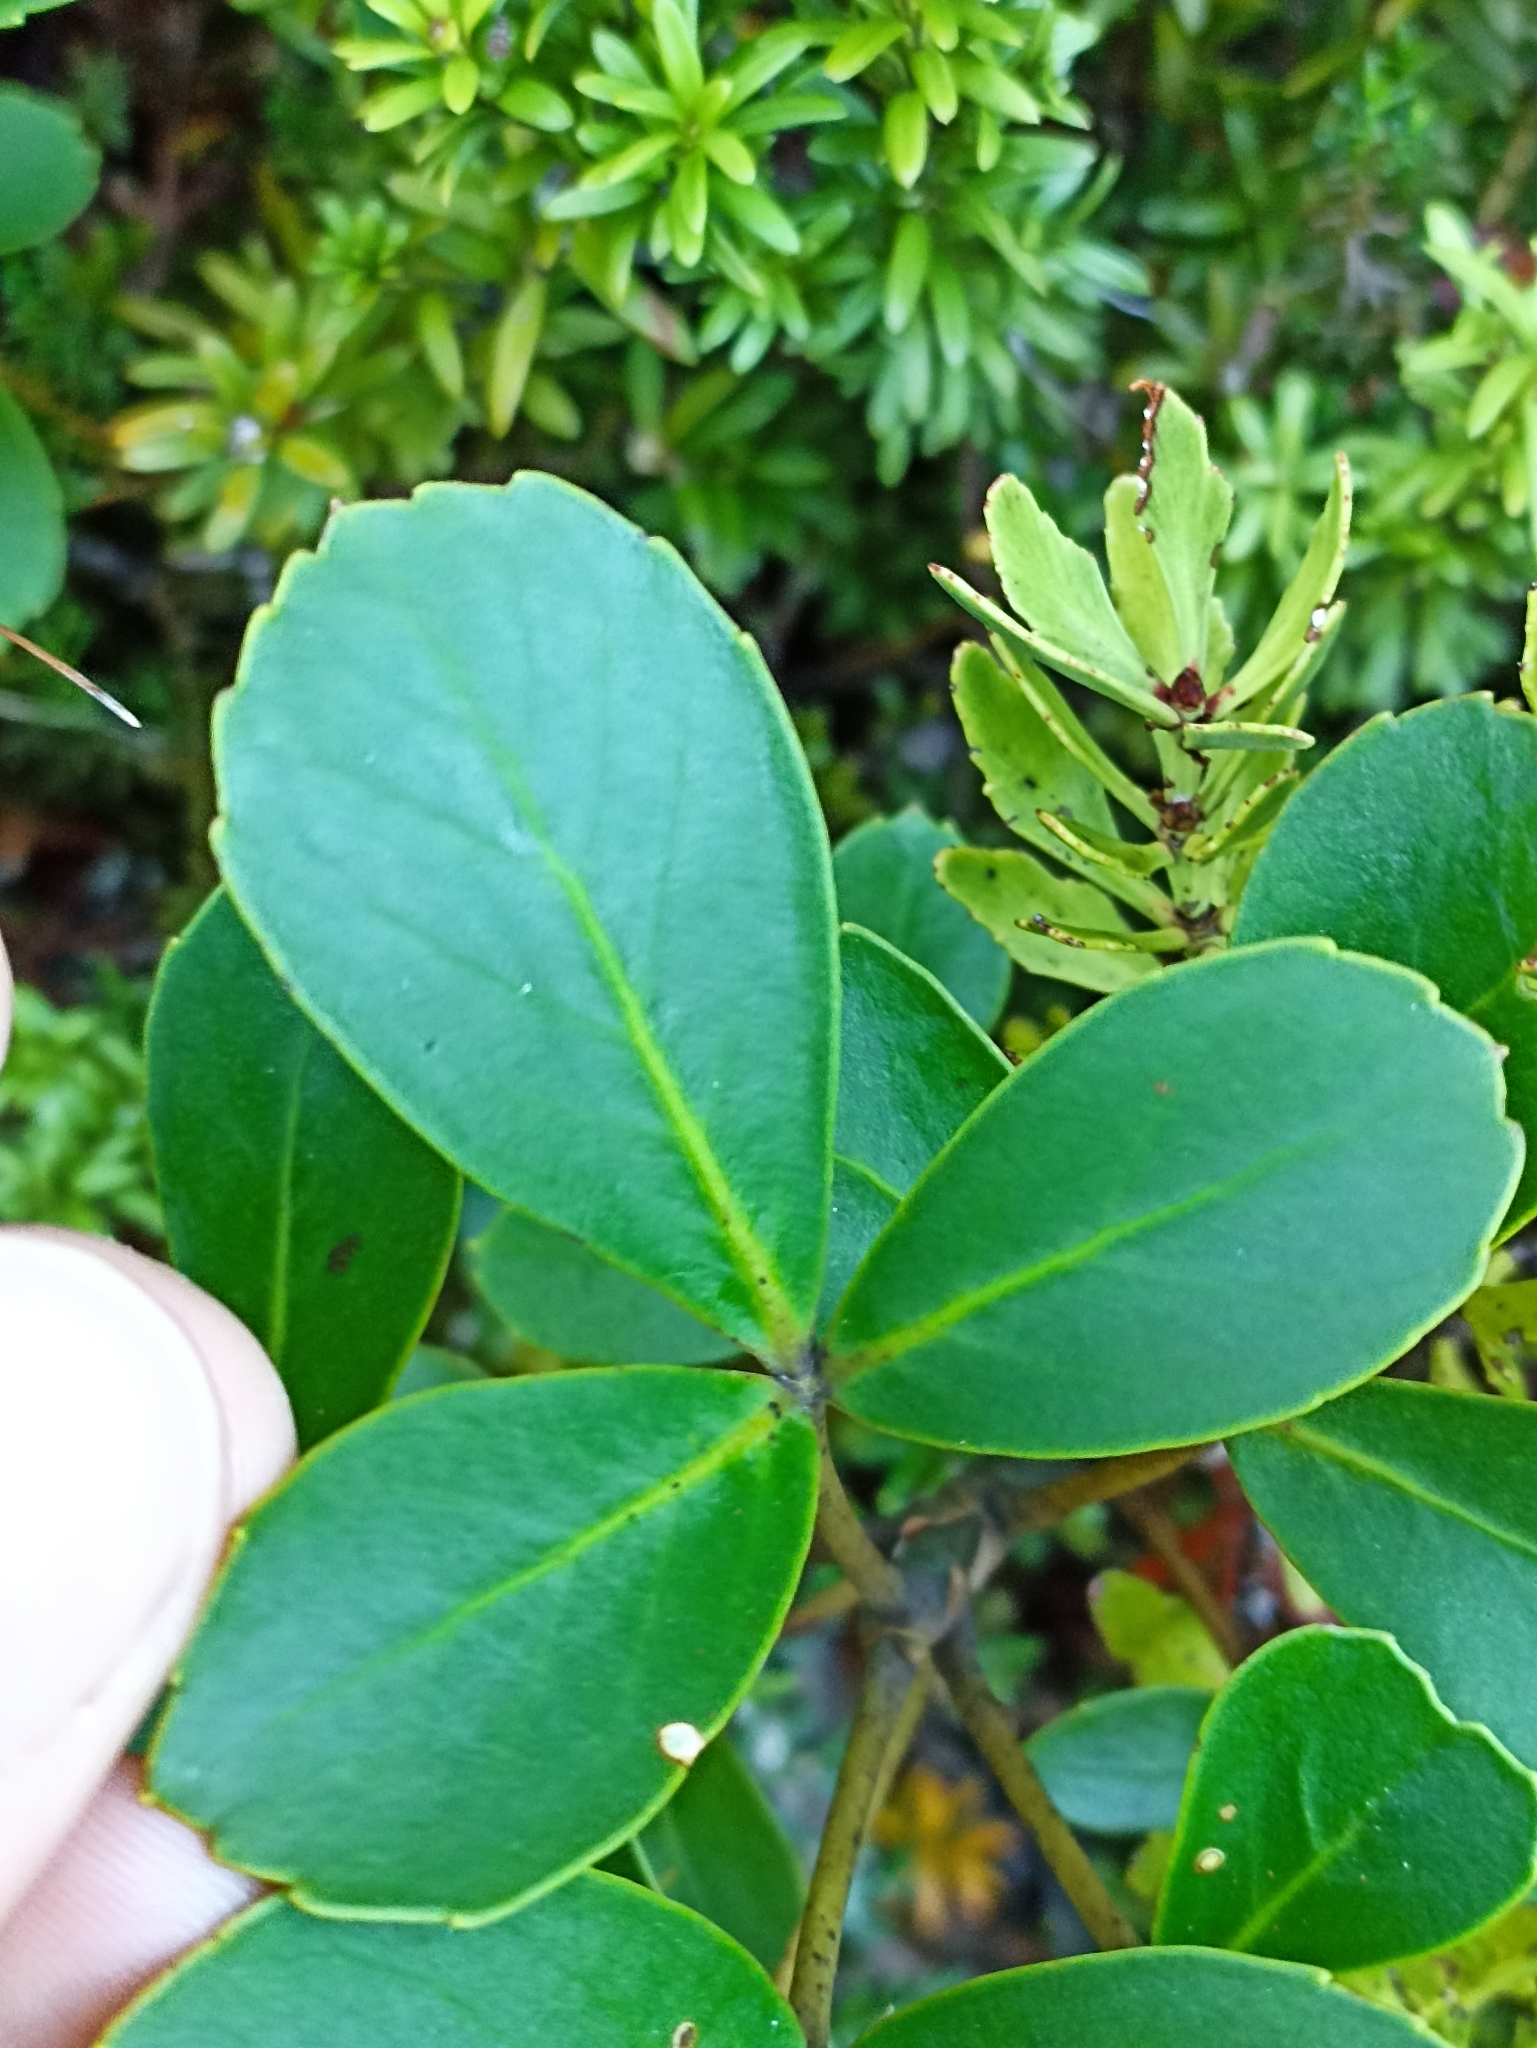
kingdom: Plantae
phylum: Tracheophyta
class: Magnoliopsida
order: Apiales
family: Araliaceae
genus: Neopanax
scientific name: Neopanax colensoi
